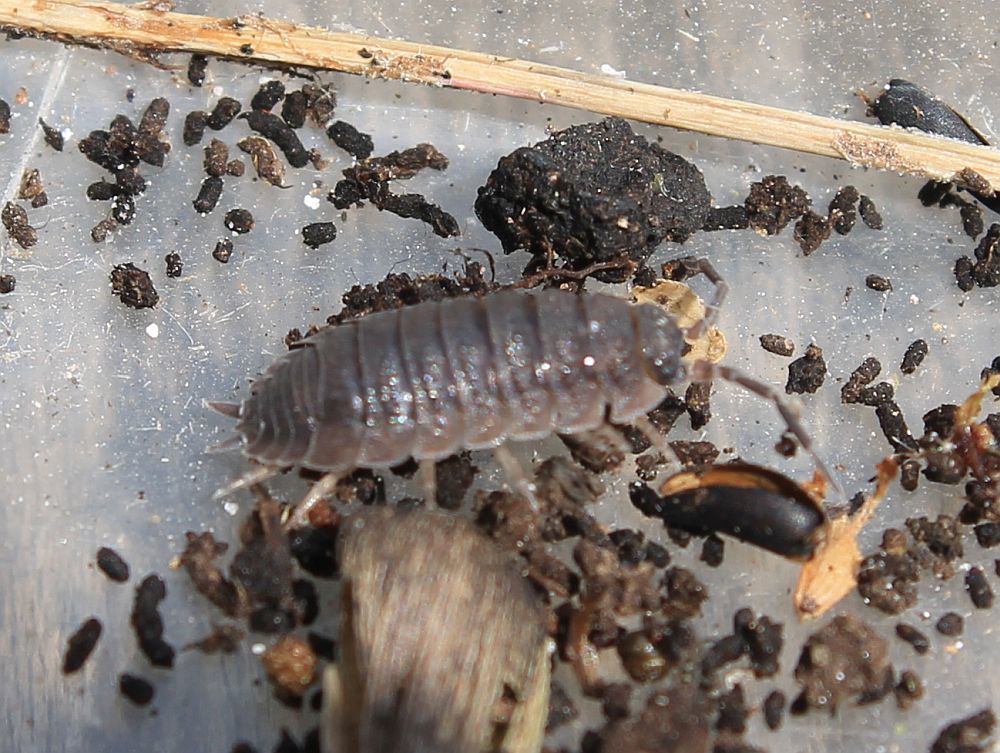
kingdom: Animalia
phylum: Arthropoda
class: Malacostraca
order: Isopoda
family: Porcellionidae
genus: Porcellio
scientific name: Porcellio scaber
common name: Common rough woodlouse
